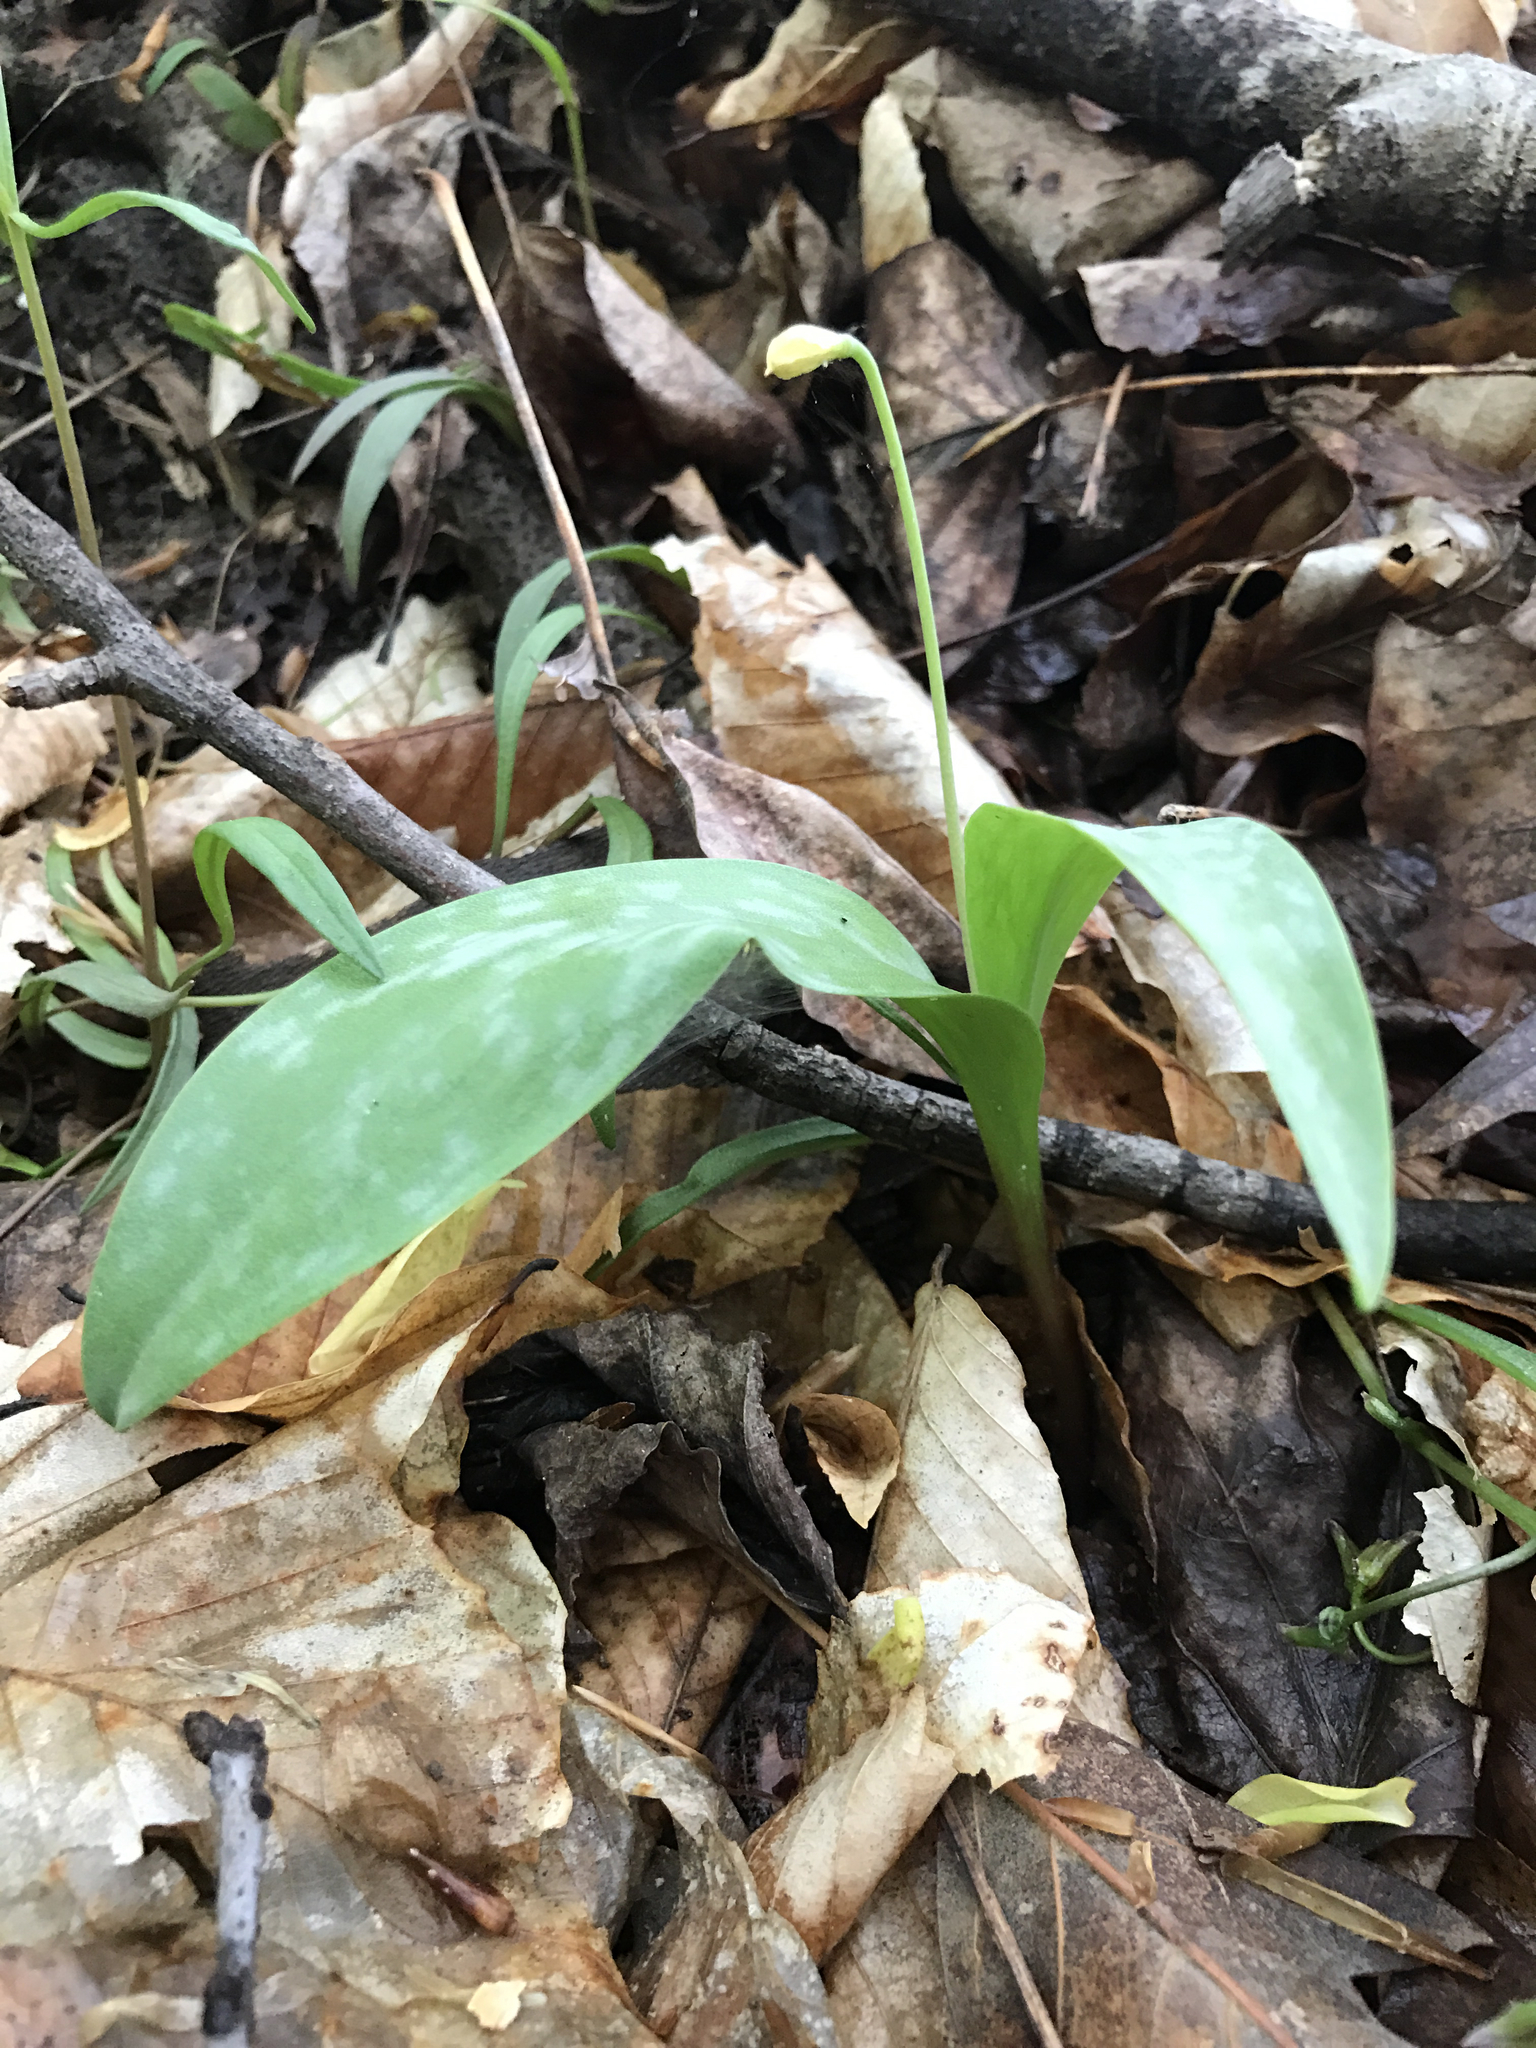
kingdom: Plantae
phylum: Tracheophyta
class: Liliopsida
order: Liliales
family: Liliaceae
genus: Erythronium
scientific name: Erythronium americanum
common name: Yellow adder's-tongue
